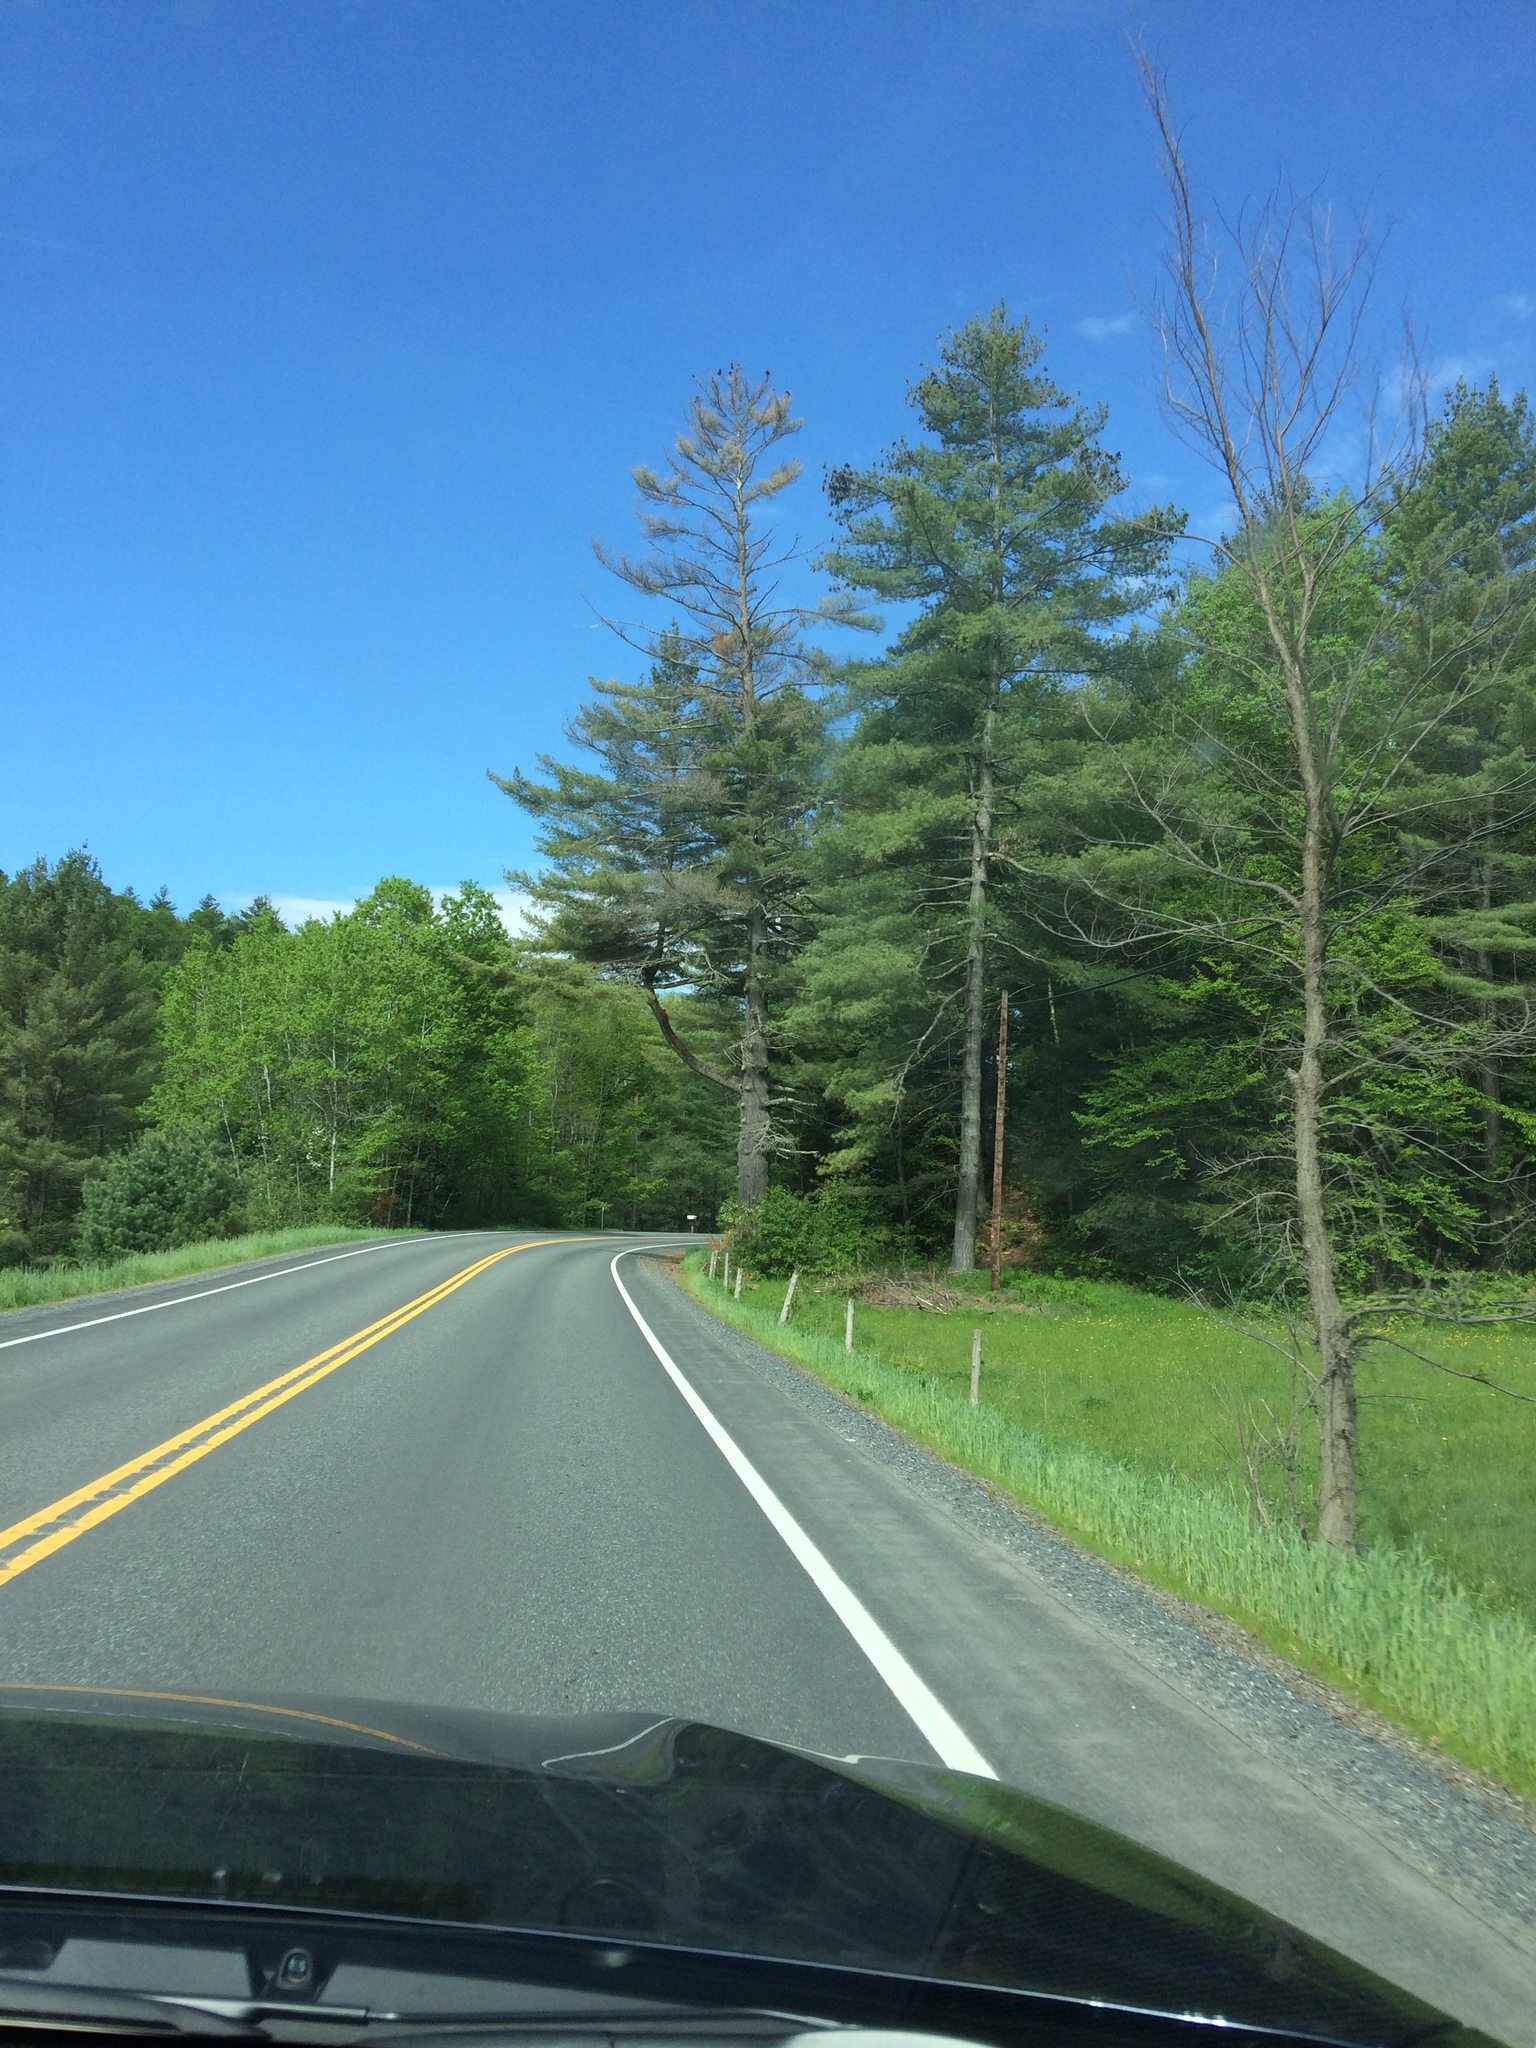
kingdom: Plantae
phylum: Tracheophyta
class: Pinopsida
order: Pinales
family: Pinaceae
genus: Pinus
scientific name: Pinus strobus
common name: Weymouth pine
